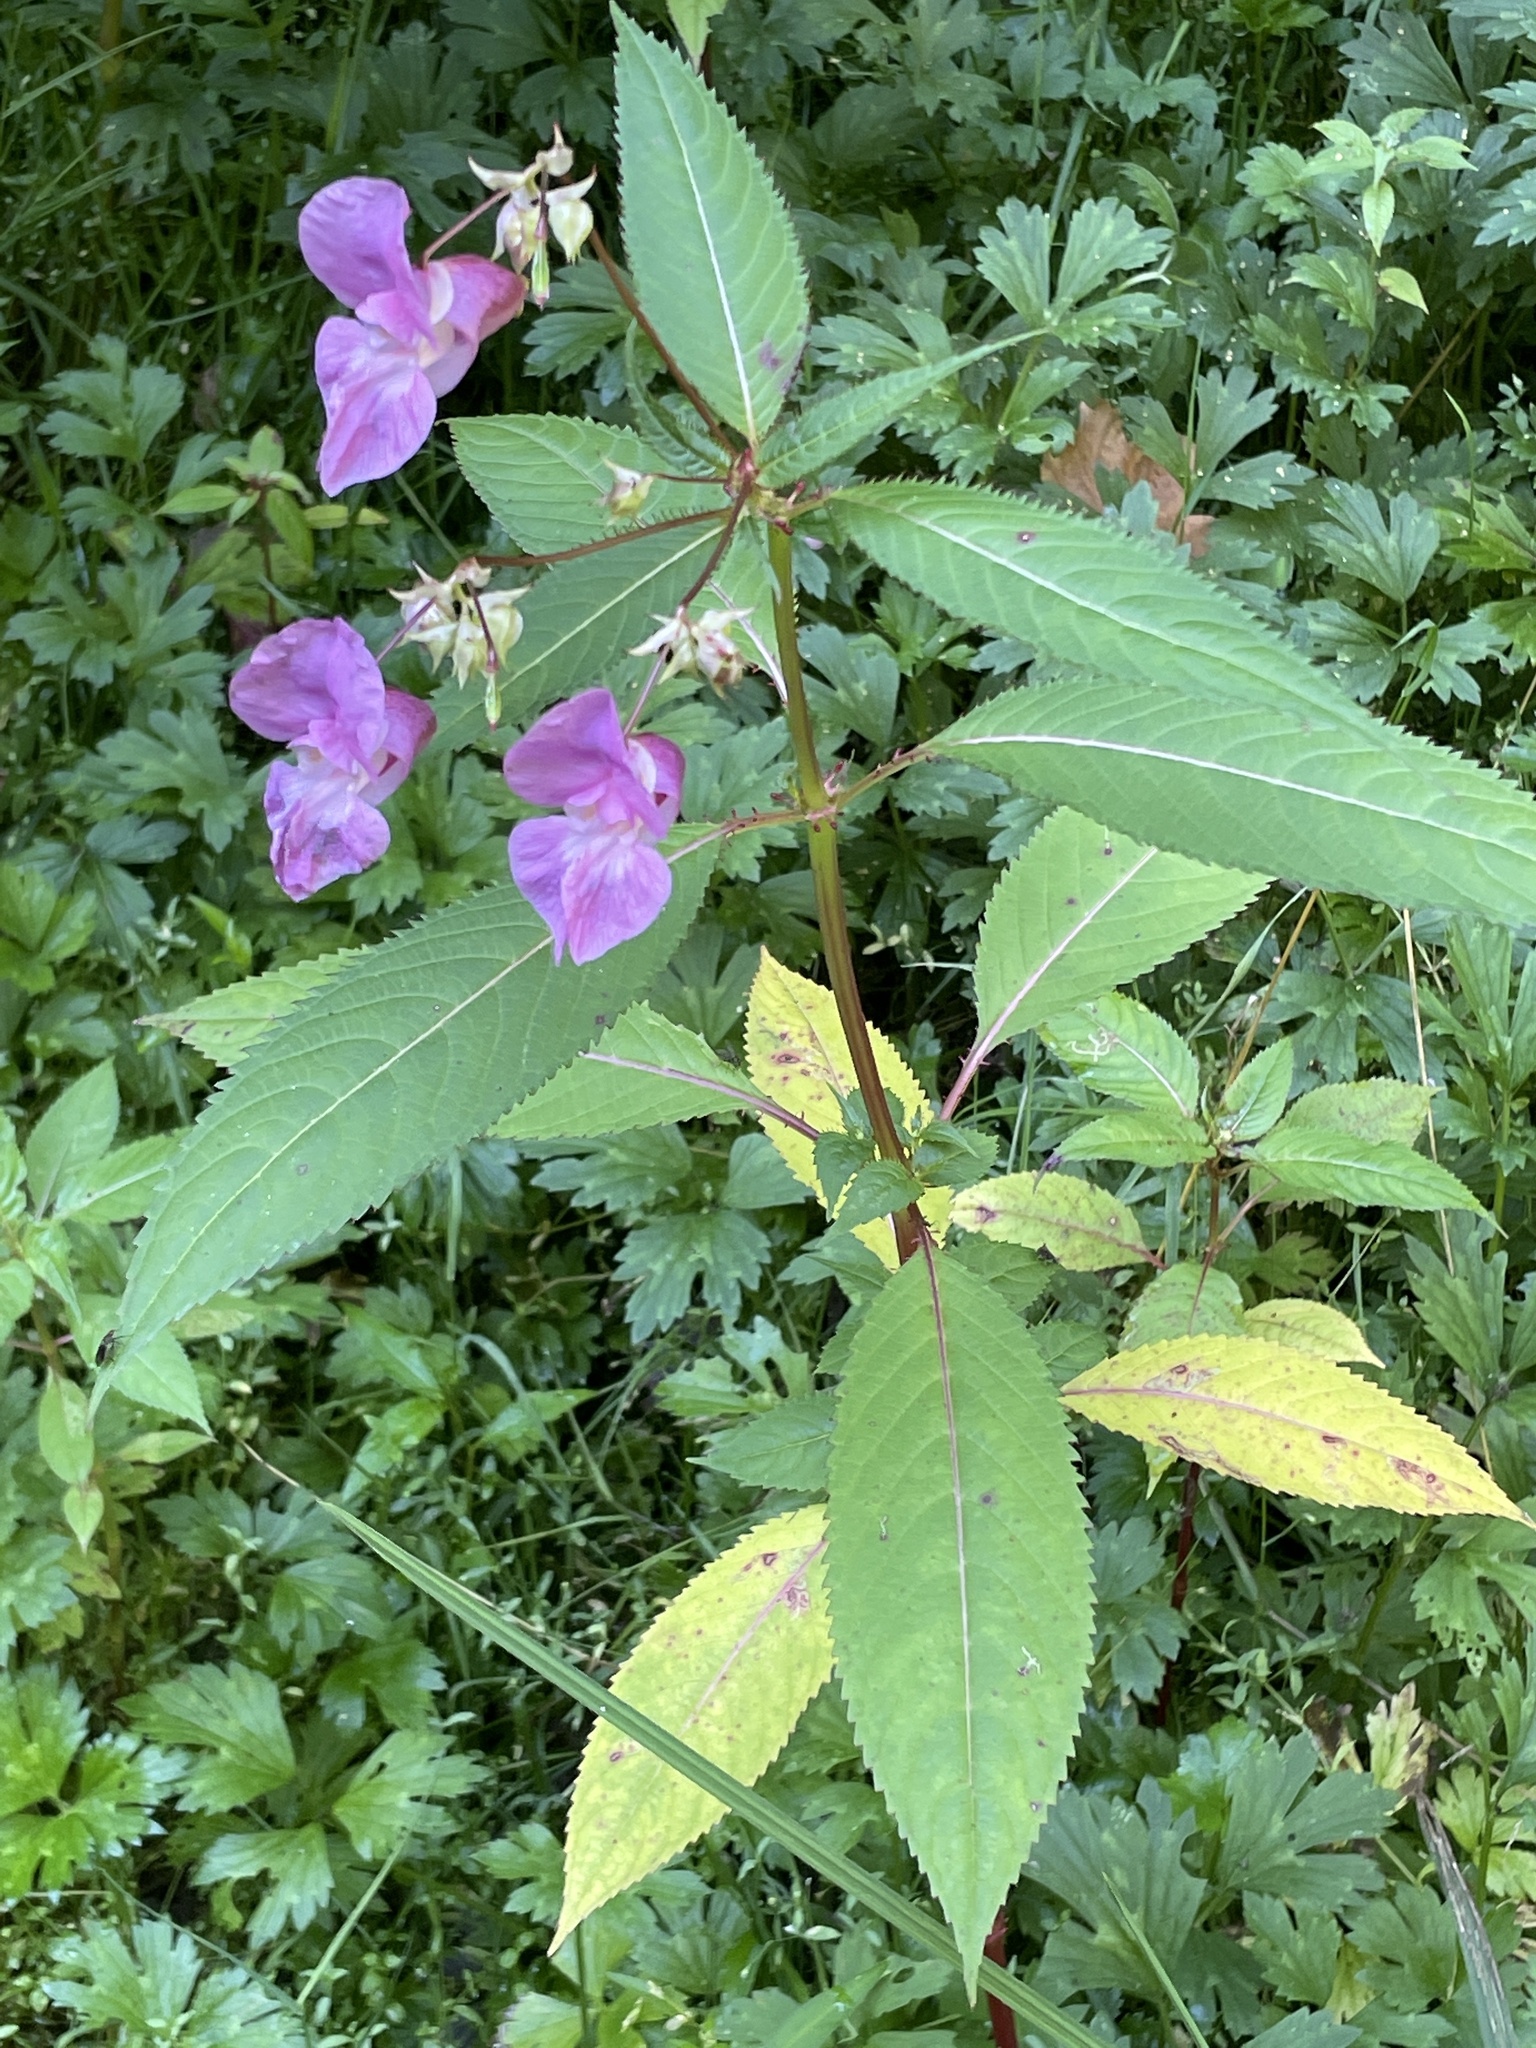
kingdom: Plantae
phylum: Tracheophyta
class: Magnoliopsida
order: Ericales
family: Balsaminaceae
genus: Impatiens
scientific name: Impatiens glandulifera
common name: Himalayan balsam
